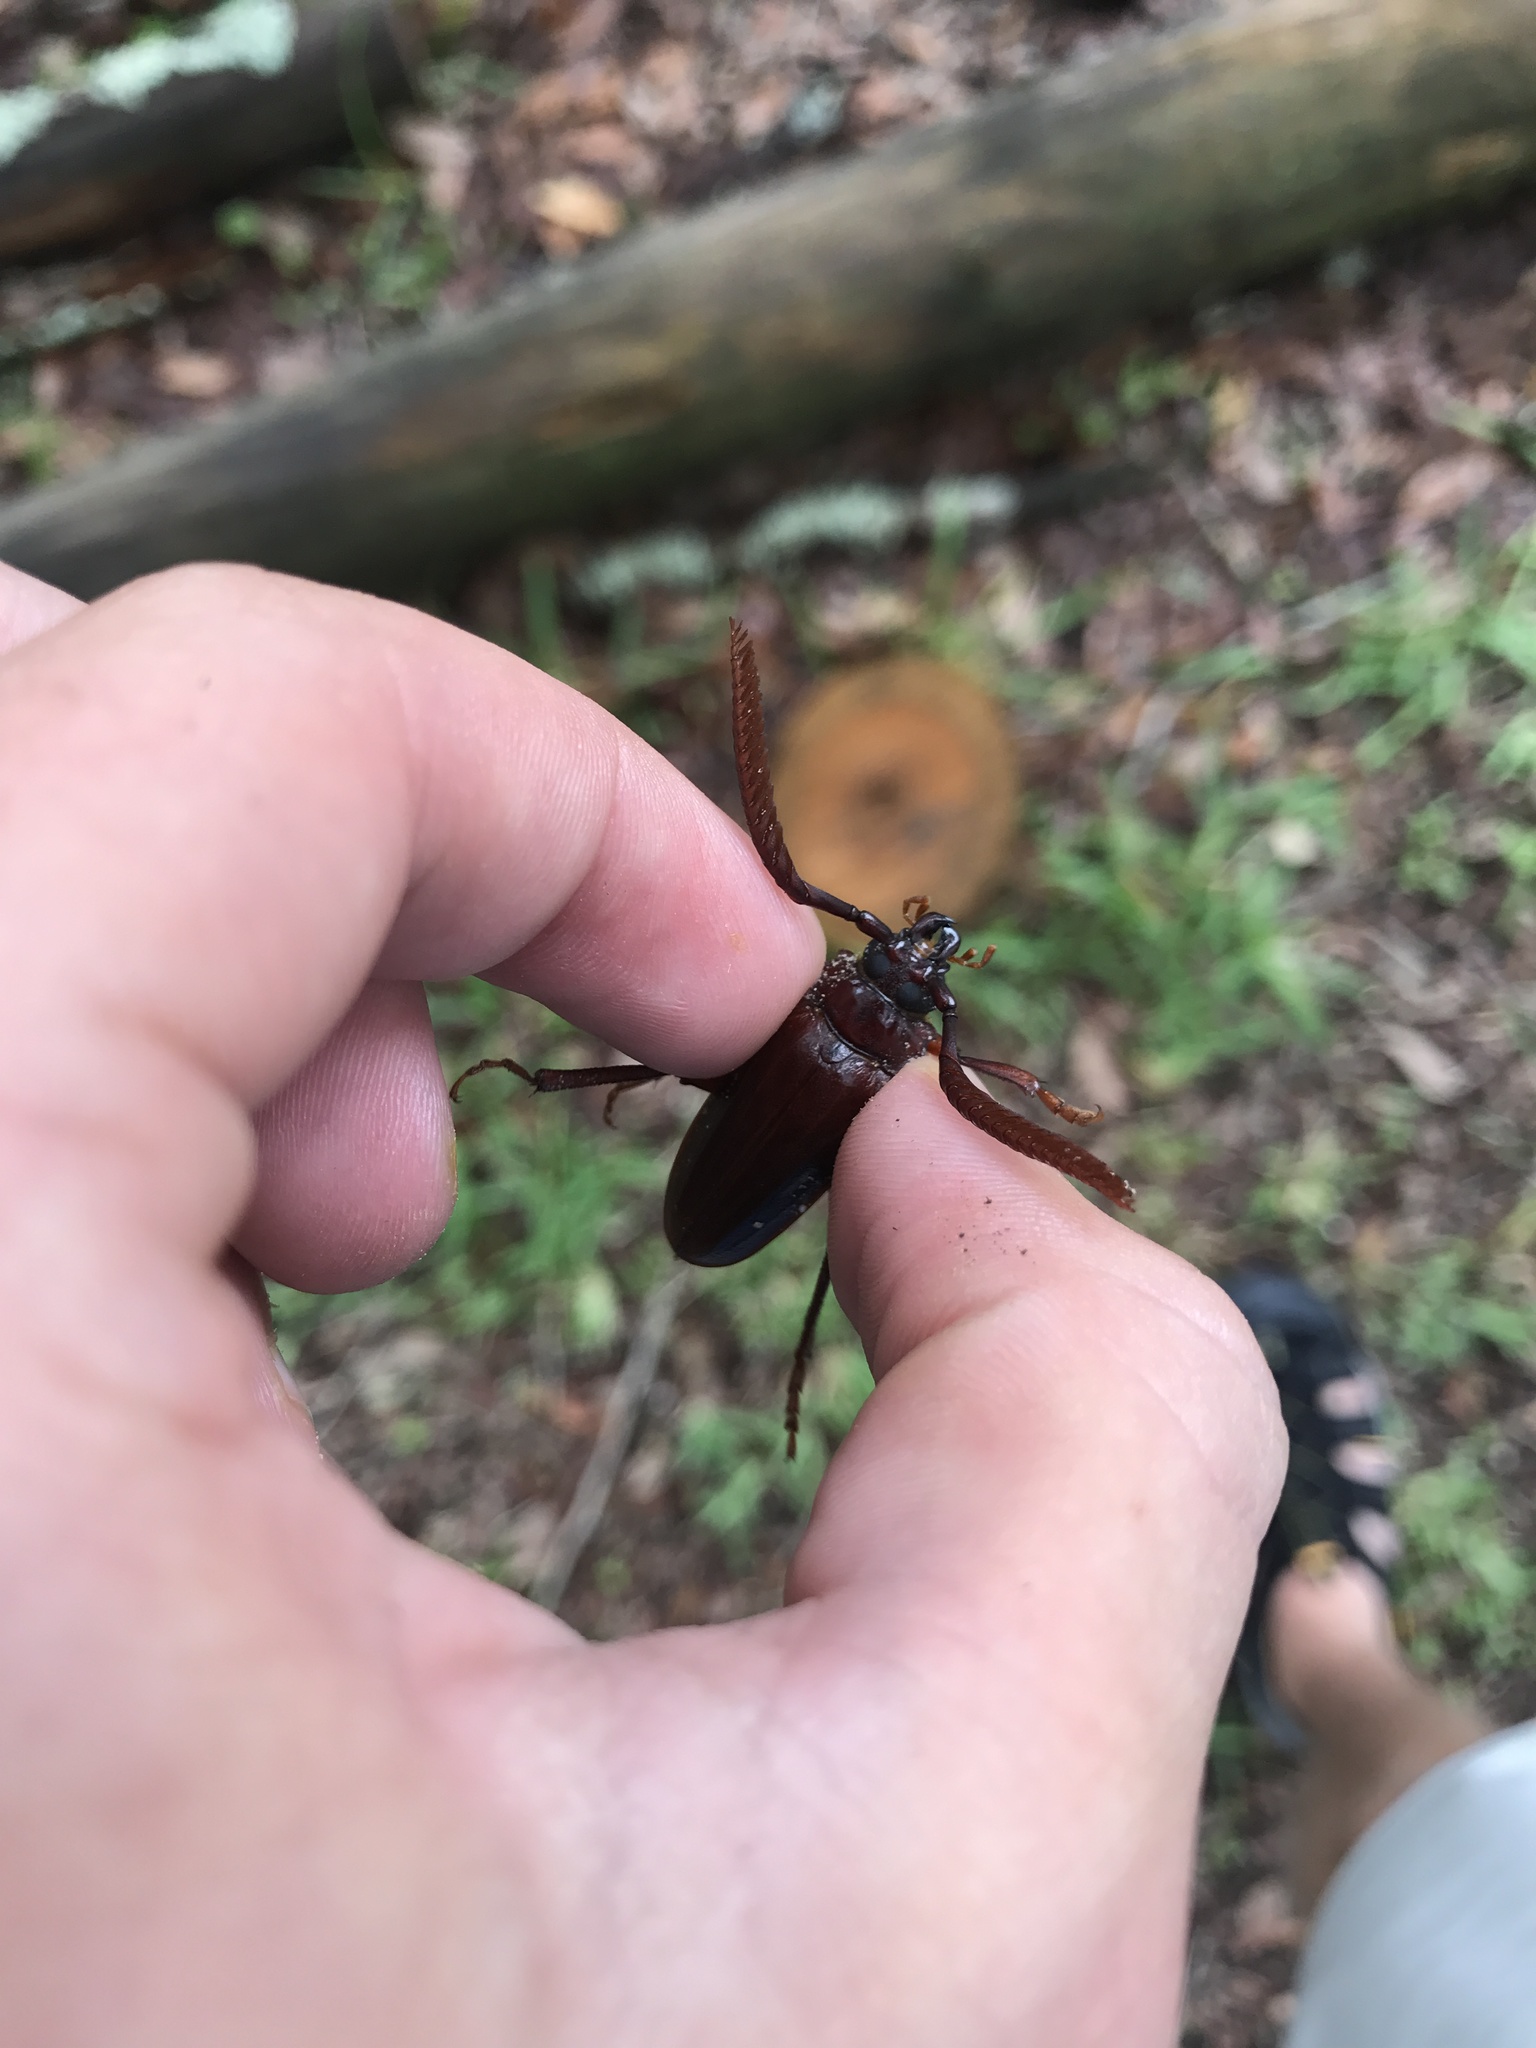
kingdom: Animalia
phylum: Arthropoda
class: Insecta
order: Coleoptera
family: Cerambycidae
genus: Prionus
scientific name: Prionus imbricornis
